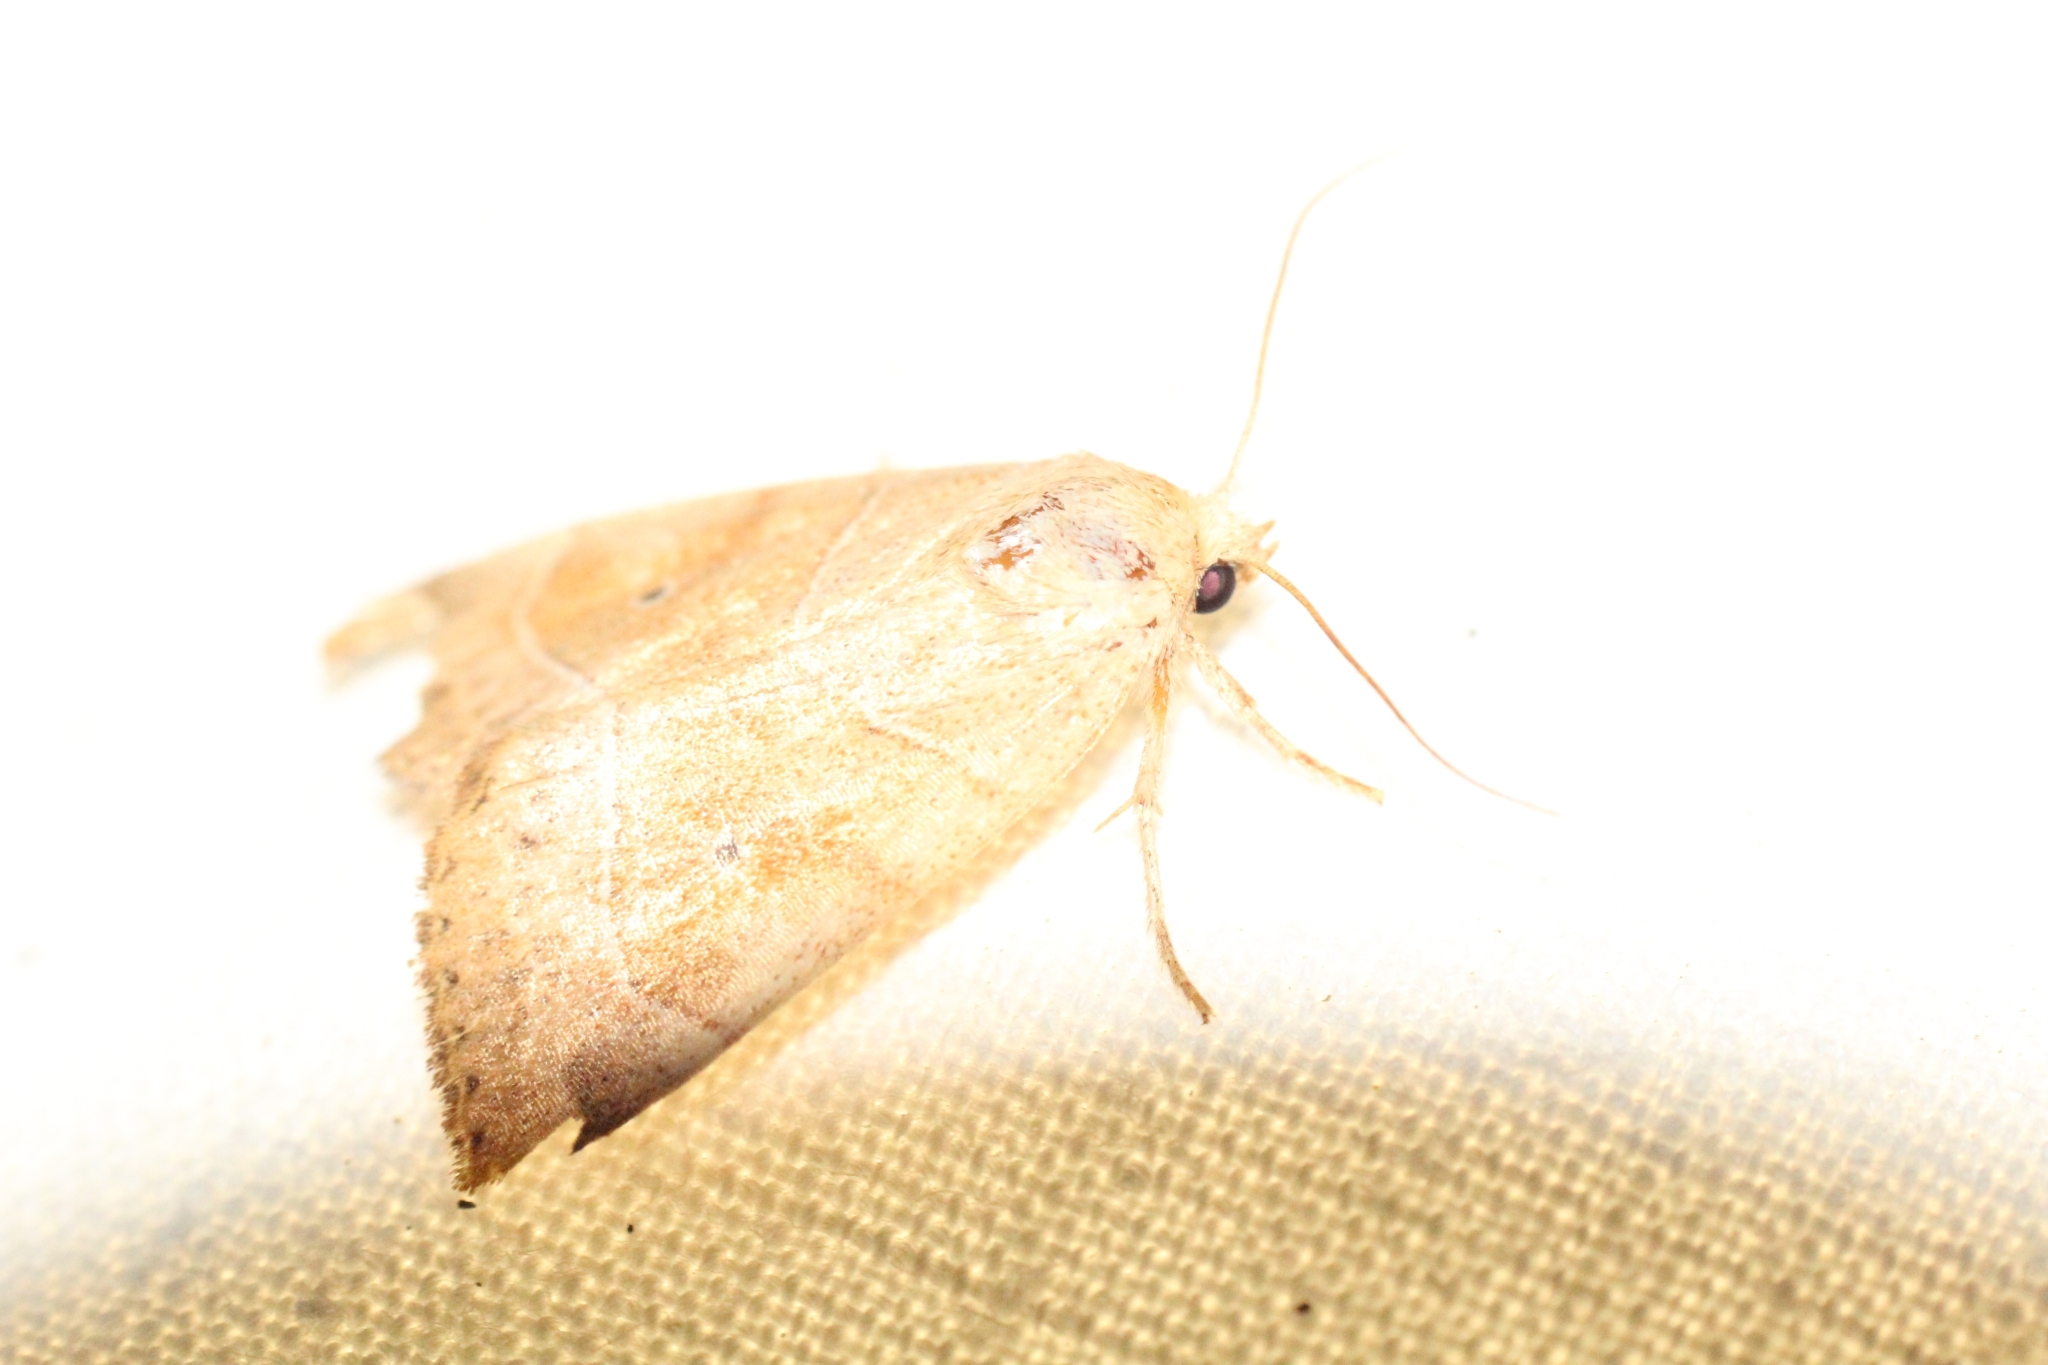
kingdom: Animalia
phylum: Arthropoda
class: Insecta
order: Lepidoptera
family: Noctuidae
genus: Cosmia
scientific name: Cosmia trapezina
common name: Dun-bar
